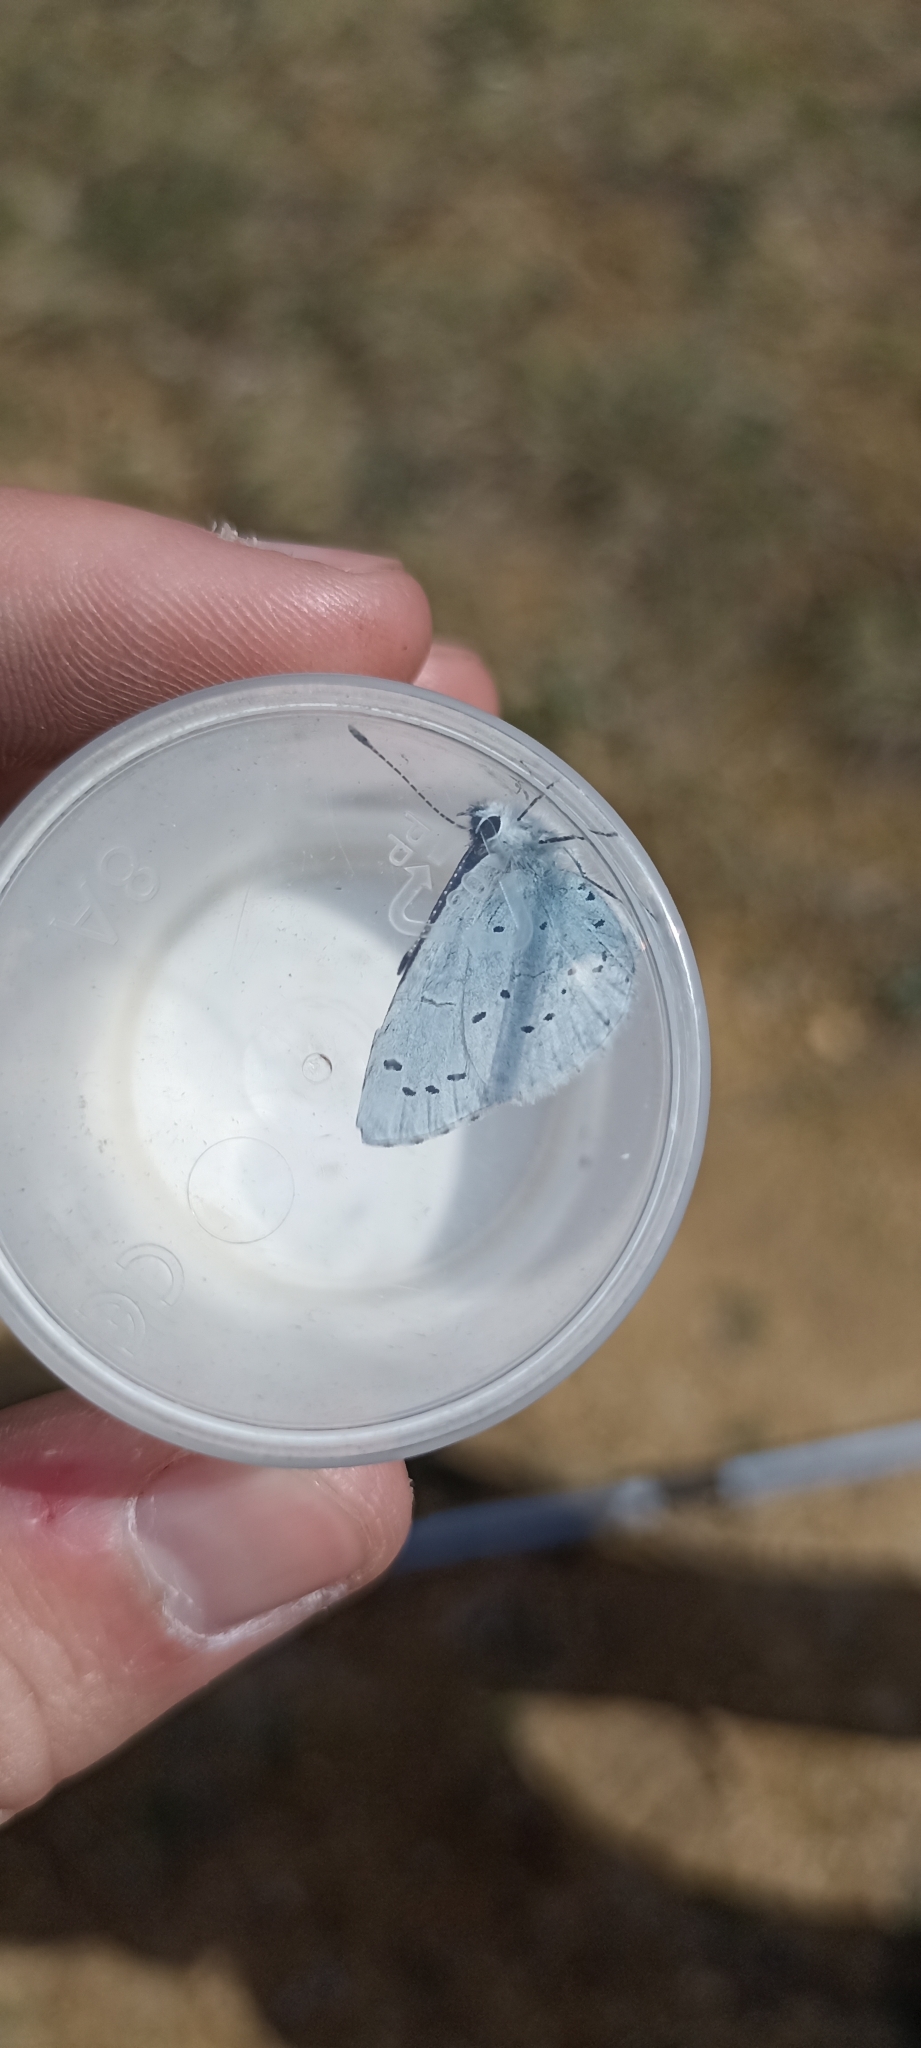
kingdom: Animalia
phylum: Arthropoda
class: Insecta
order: Lepidoptera
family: Lycaenidae
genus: Celastrina
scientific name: Celastrina argiolus
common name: Holly blue
